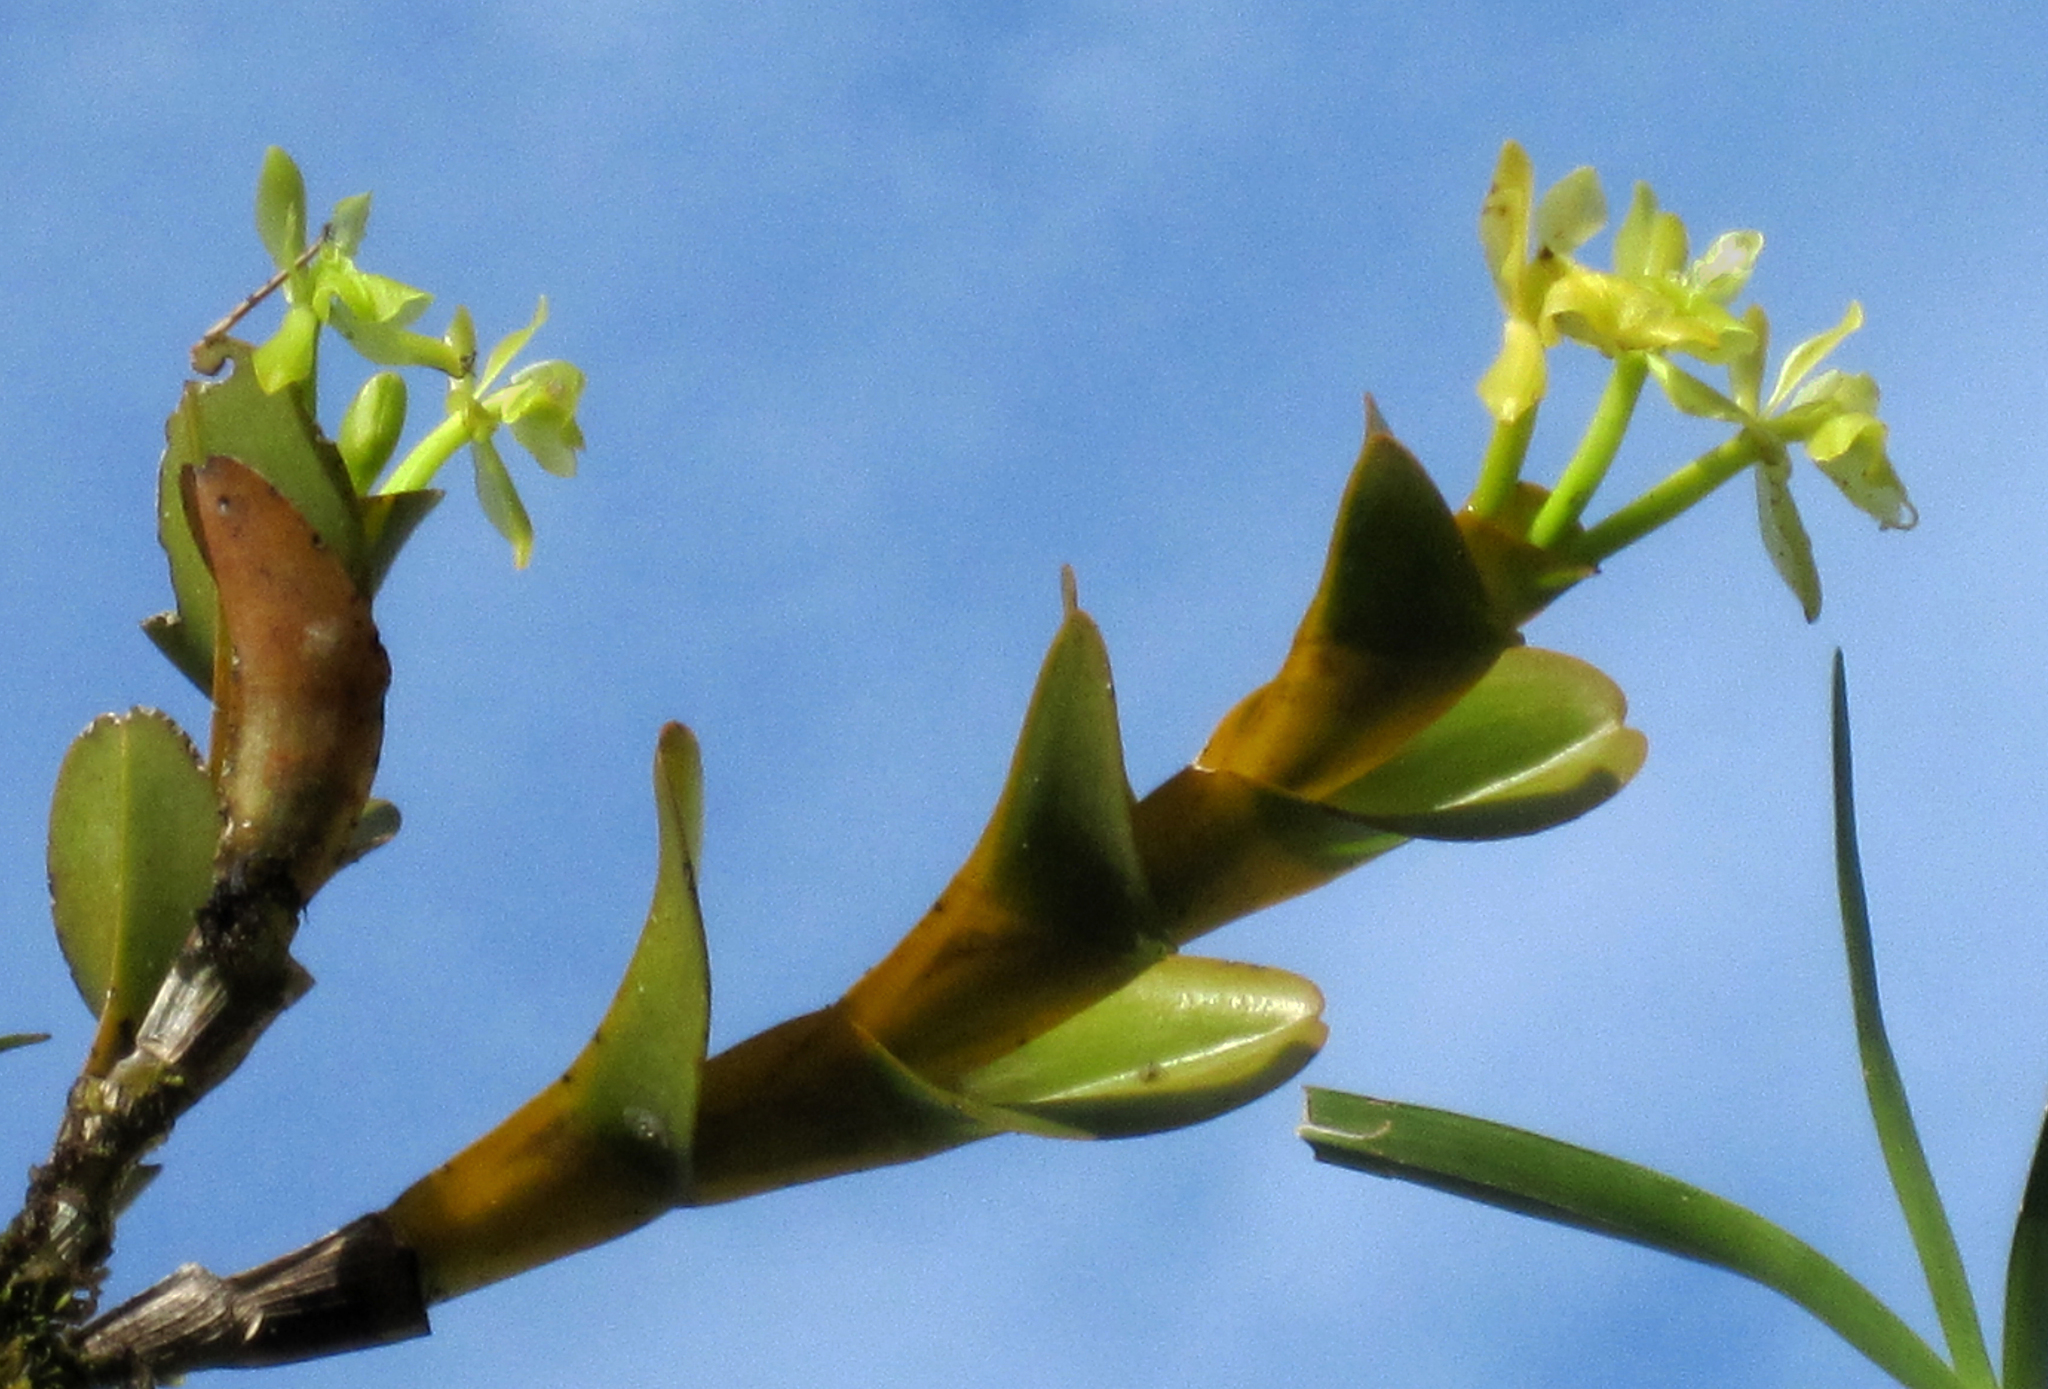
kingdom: Plantae
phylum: Tracheophyta
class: Liliopsida
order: Asparagales
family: Orchidaceae
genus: Epidendrum
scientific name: Epidendrum fusagasugaense
